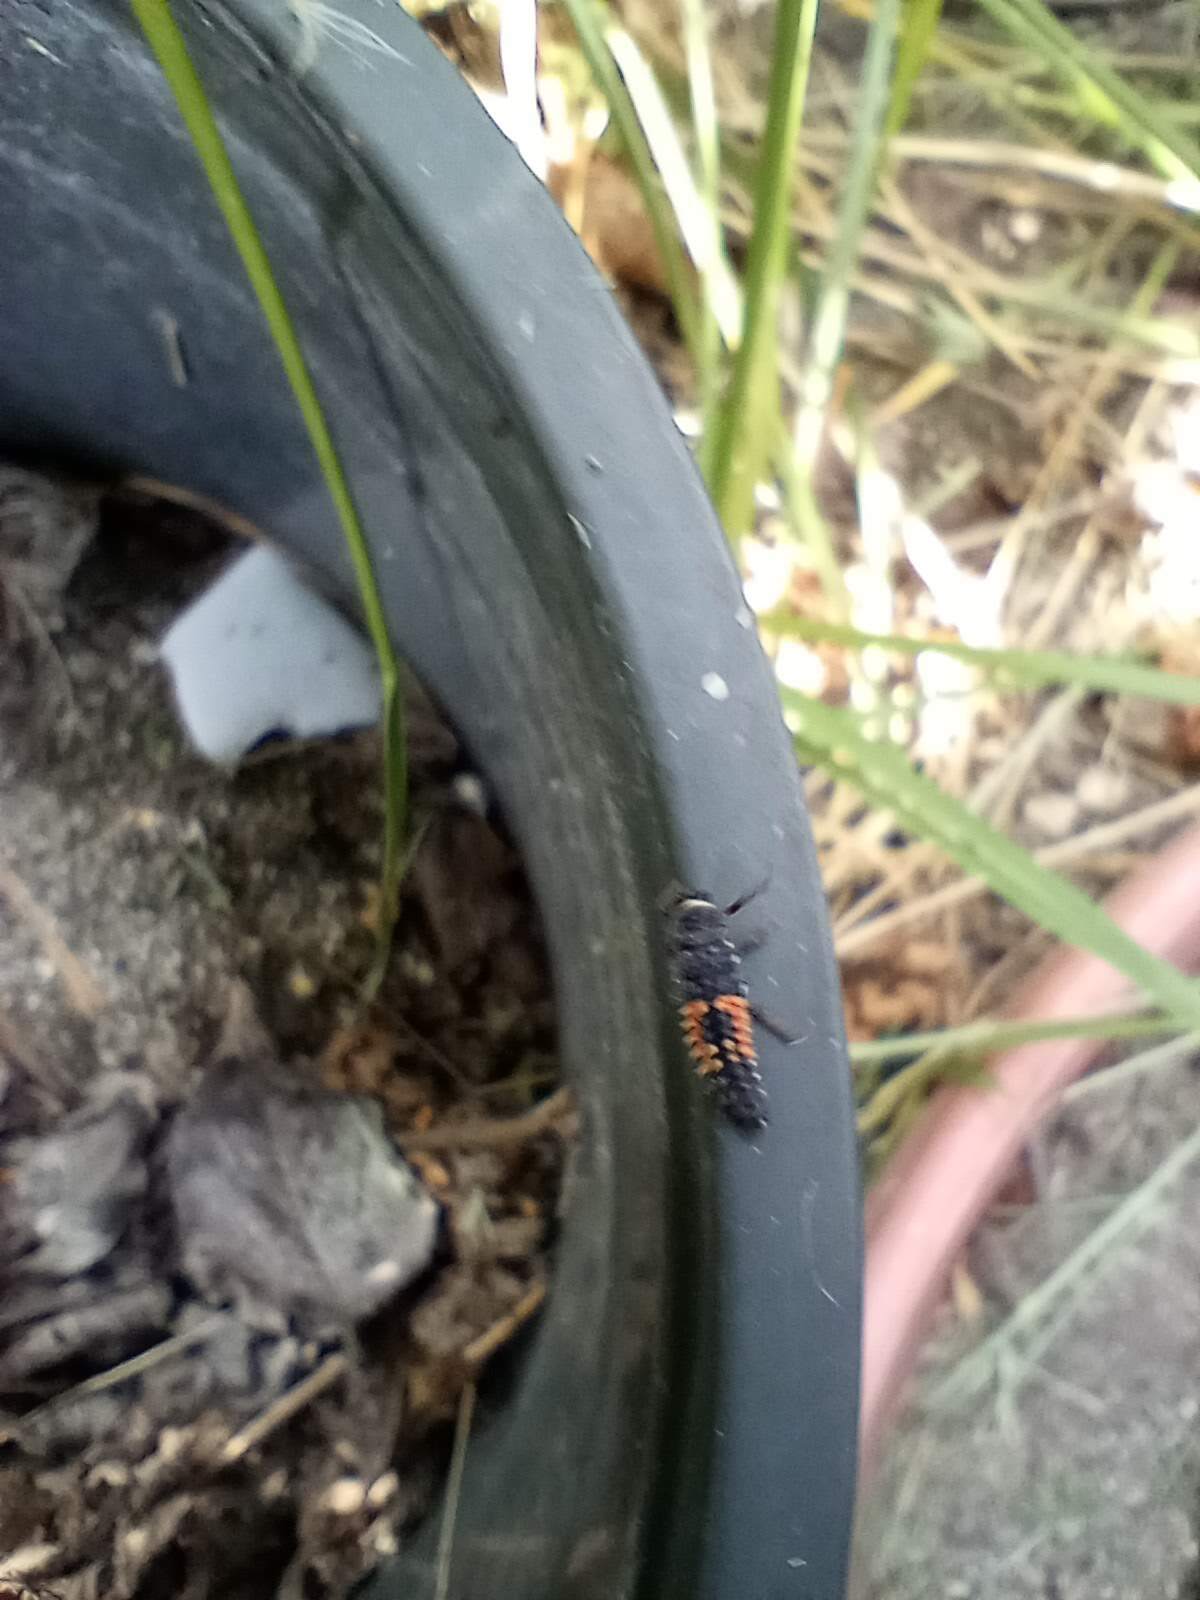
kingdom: Animalia
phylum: Arthropoda
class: Insecta
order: Coleoptera
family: Coccinellidae
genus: Harmonia
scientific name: Harmonia axyridis
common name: Harlequin ladybird
